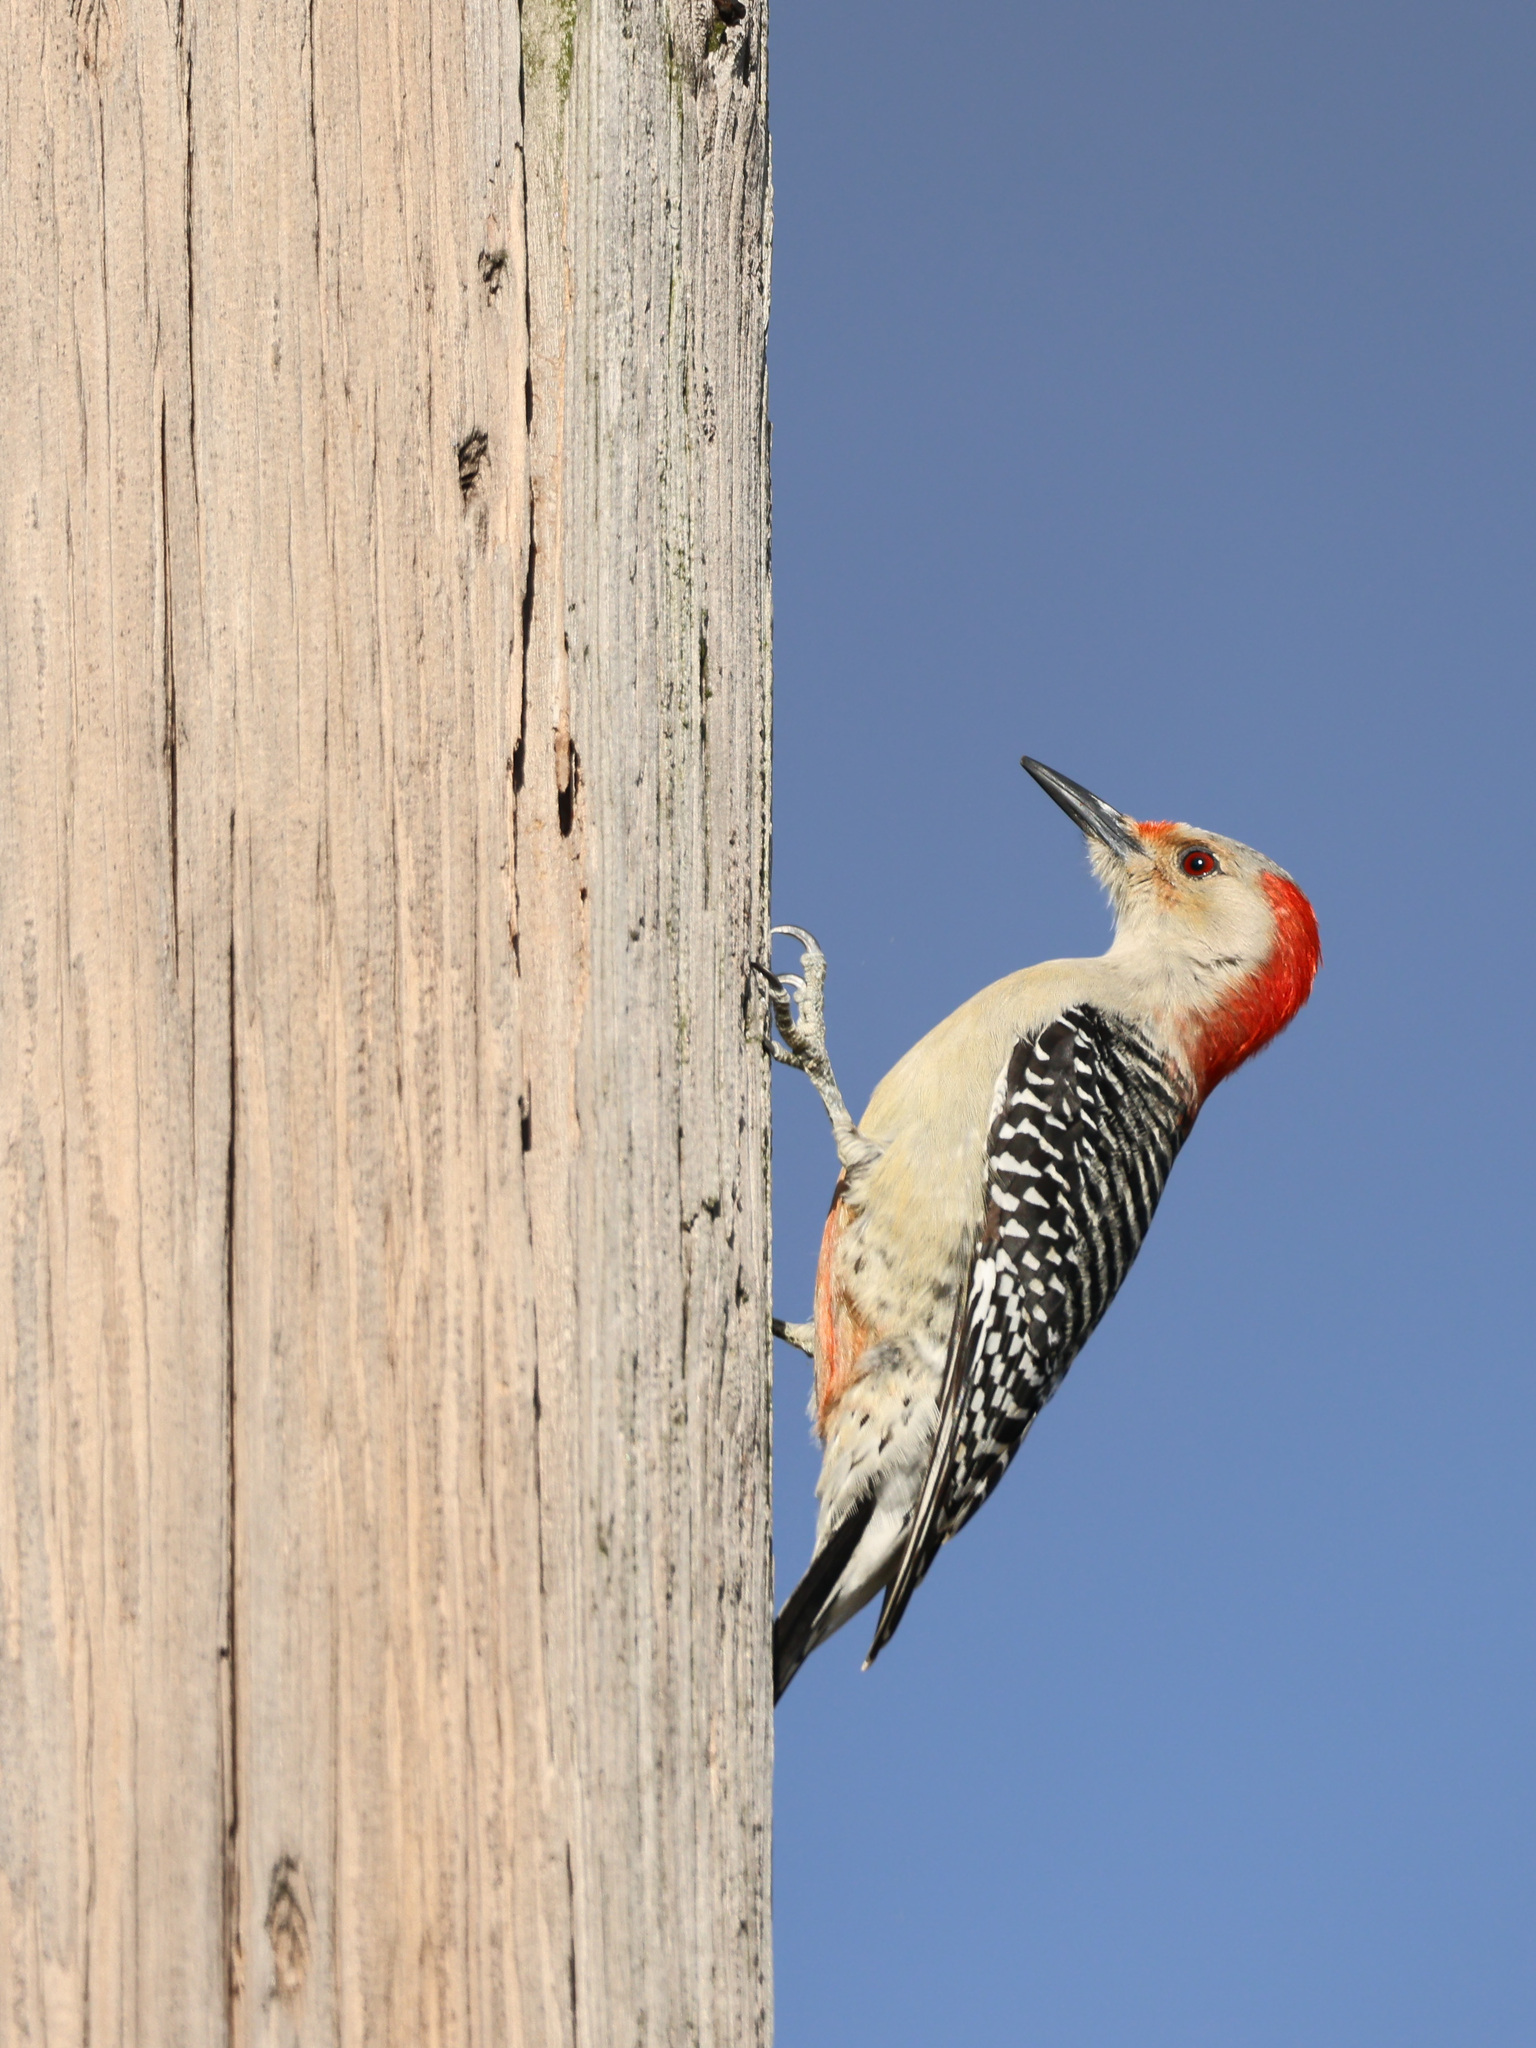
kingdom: Animalia
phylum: Chordata
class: Aves
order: Piciformes
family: Picidae
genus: Melanerpes
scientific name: Melanerpes carolinus
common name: Red-bellied woodpecker
